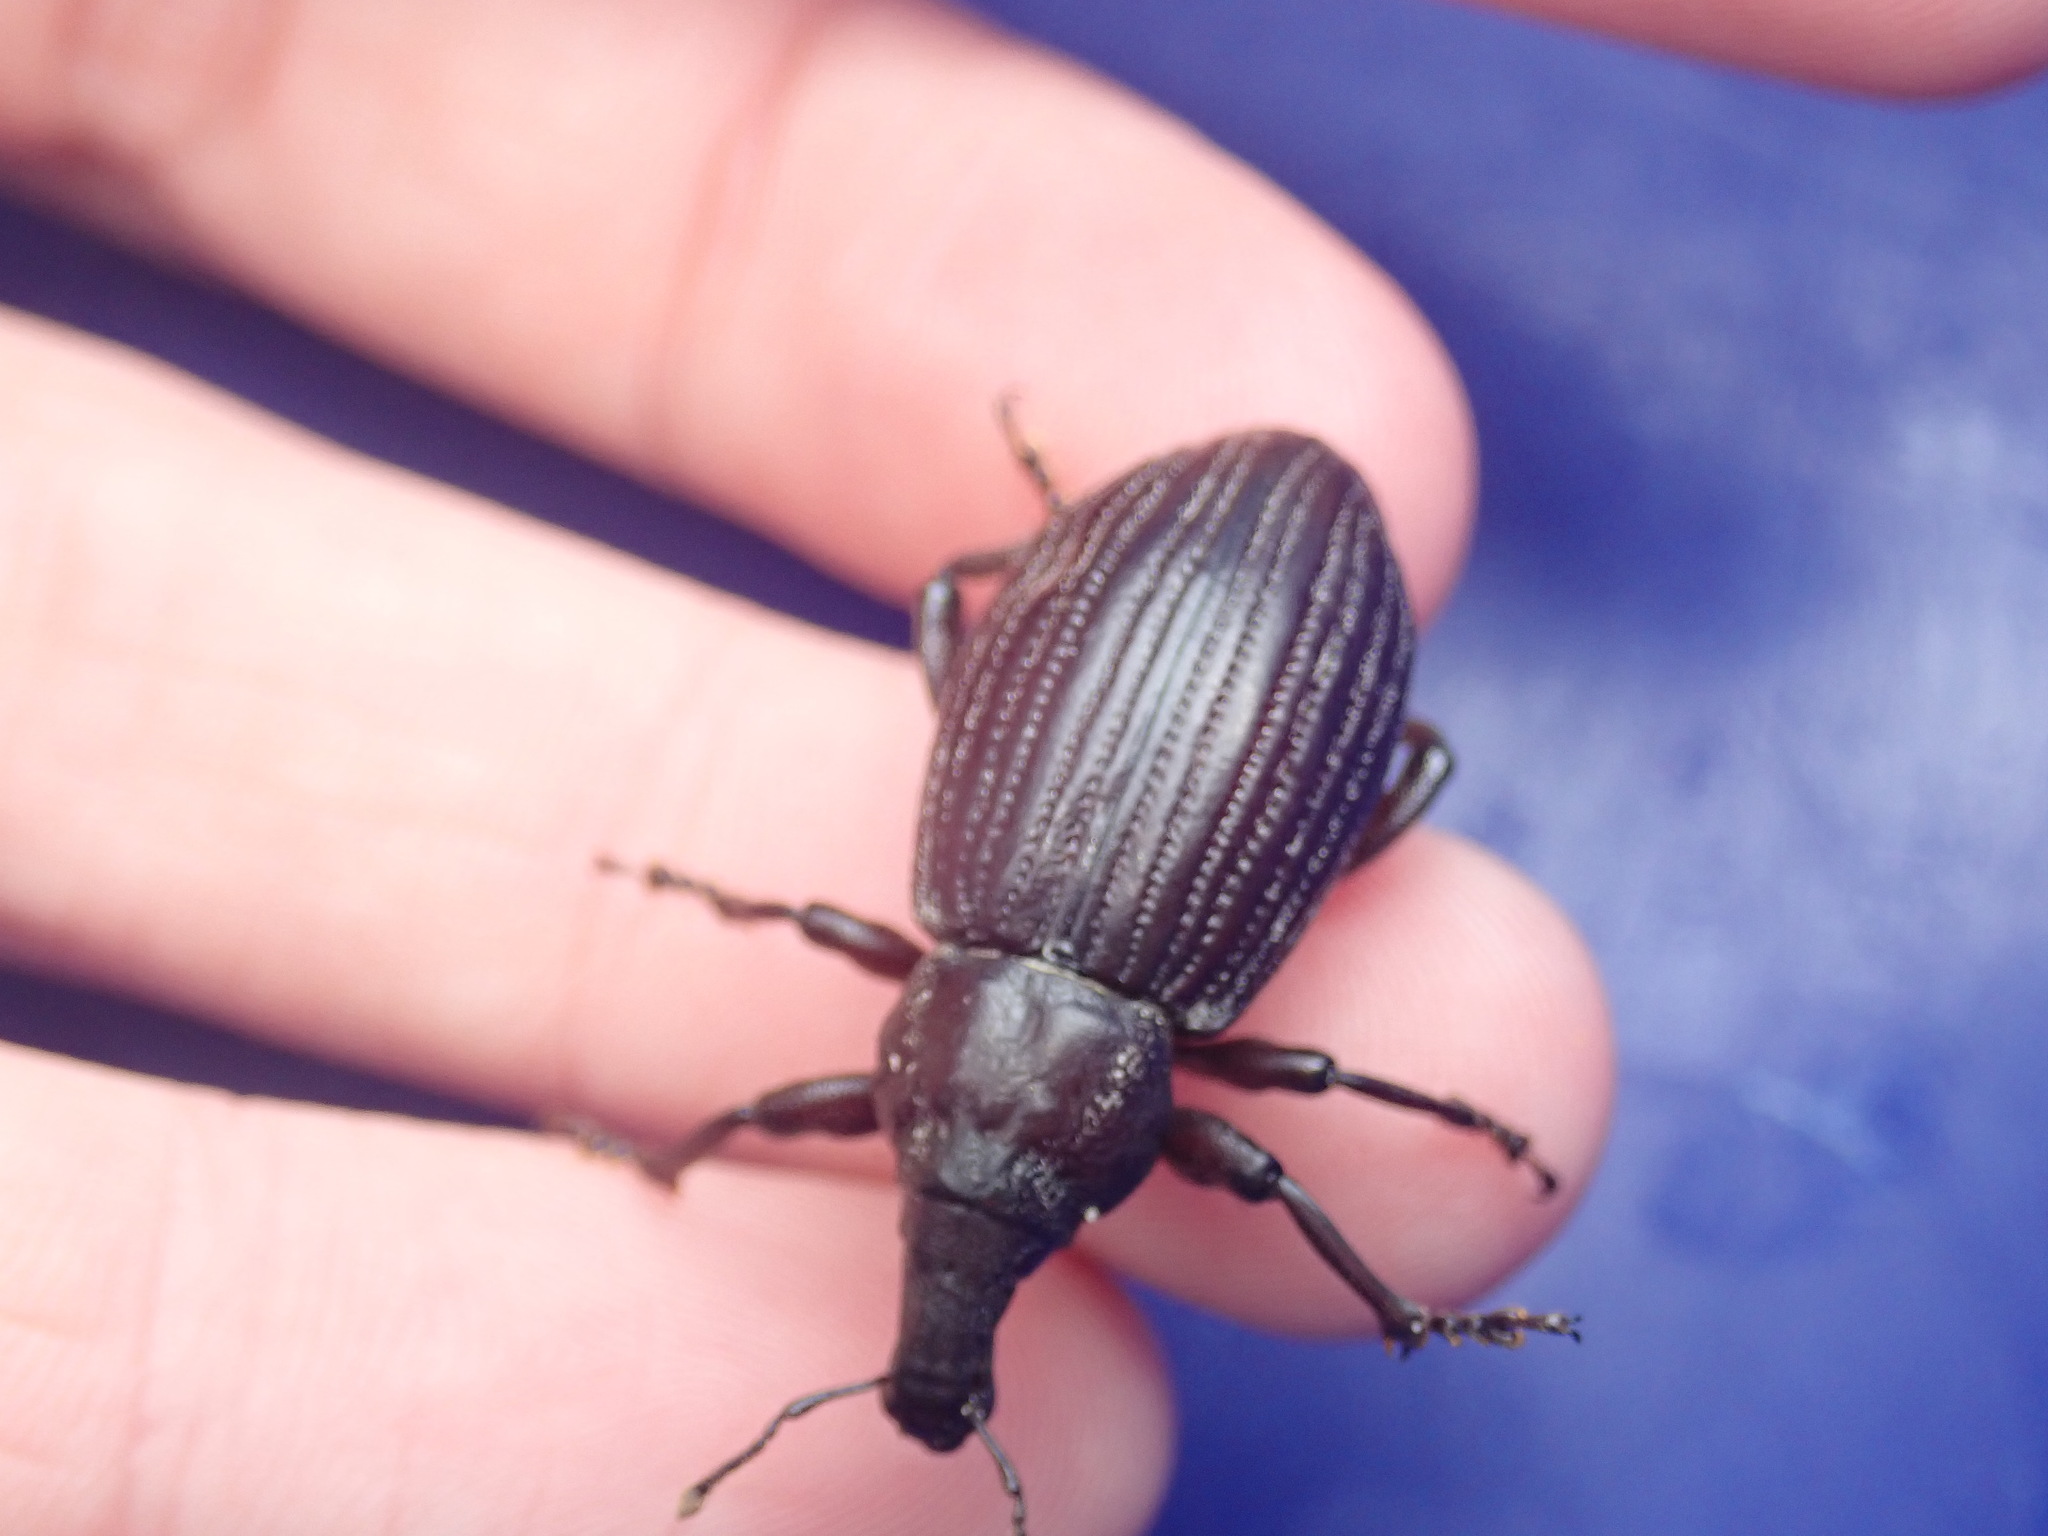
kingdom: Animalia
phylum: Arthropoda
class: Insecta
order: Coleoptera
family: Curculionidae
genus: Lyperobius
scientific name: Lyperobius huttoni
